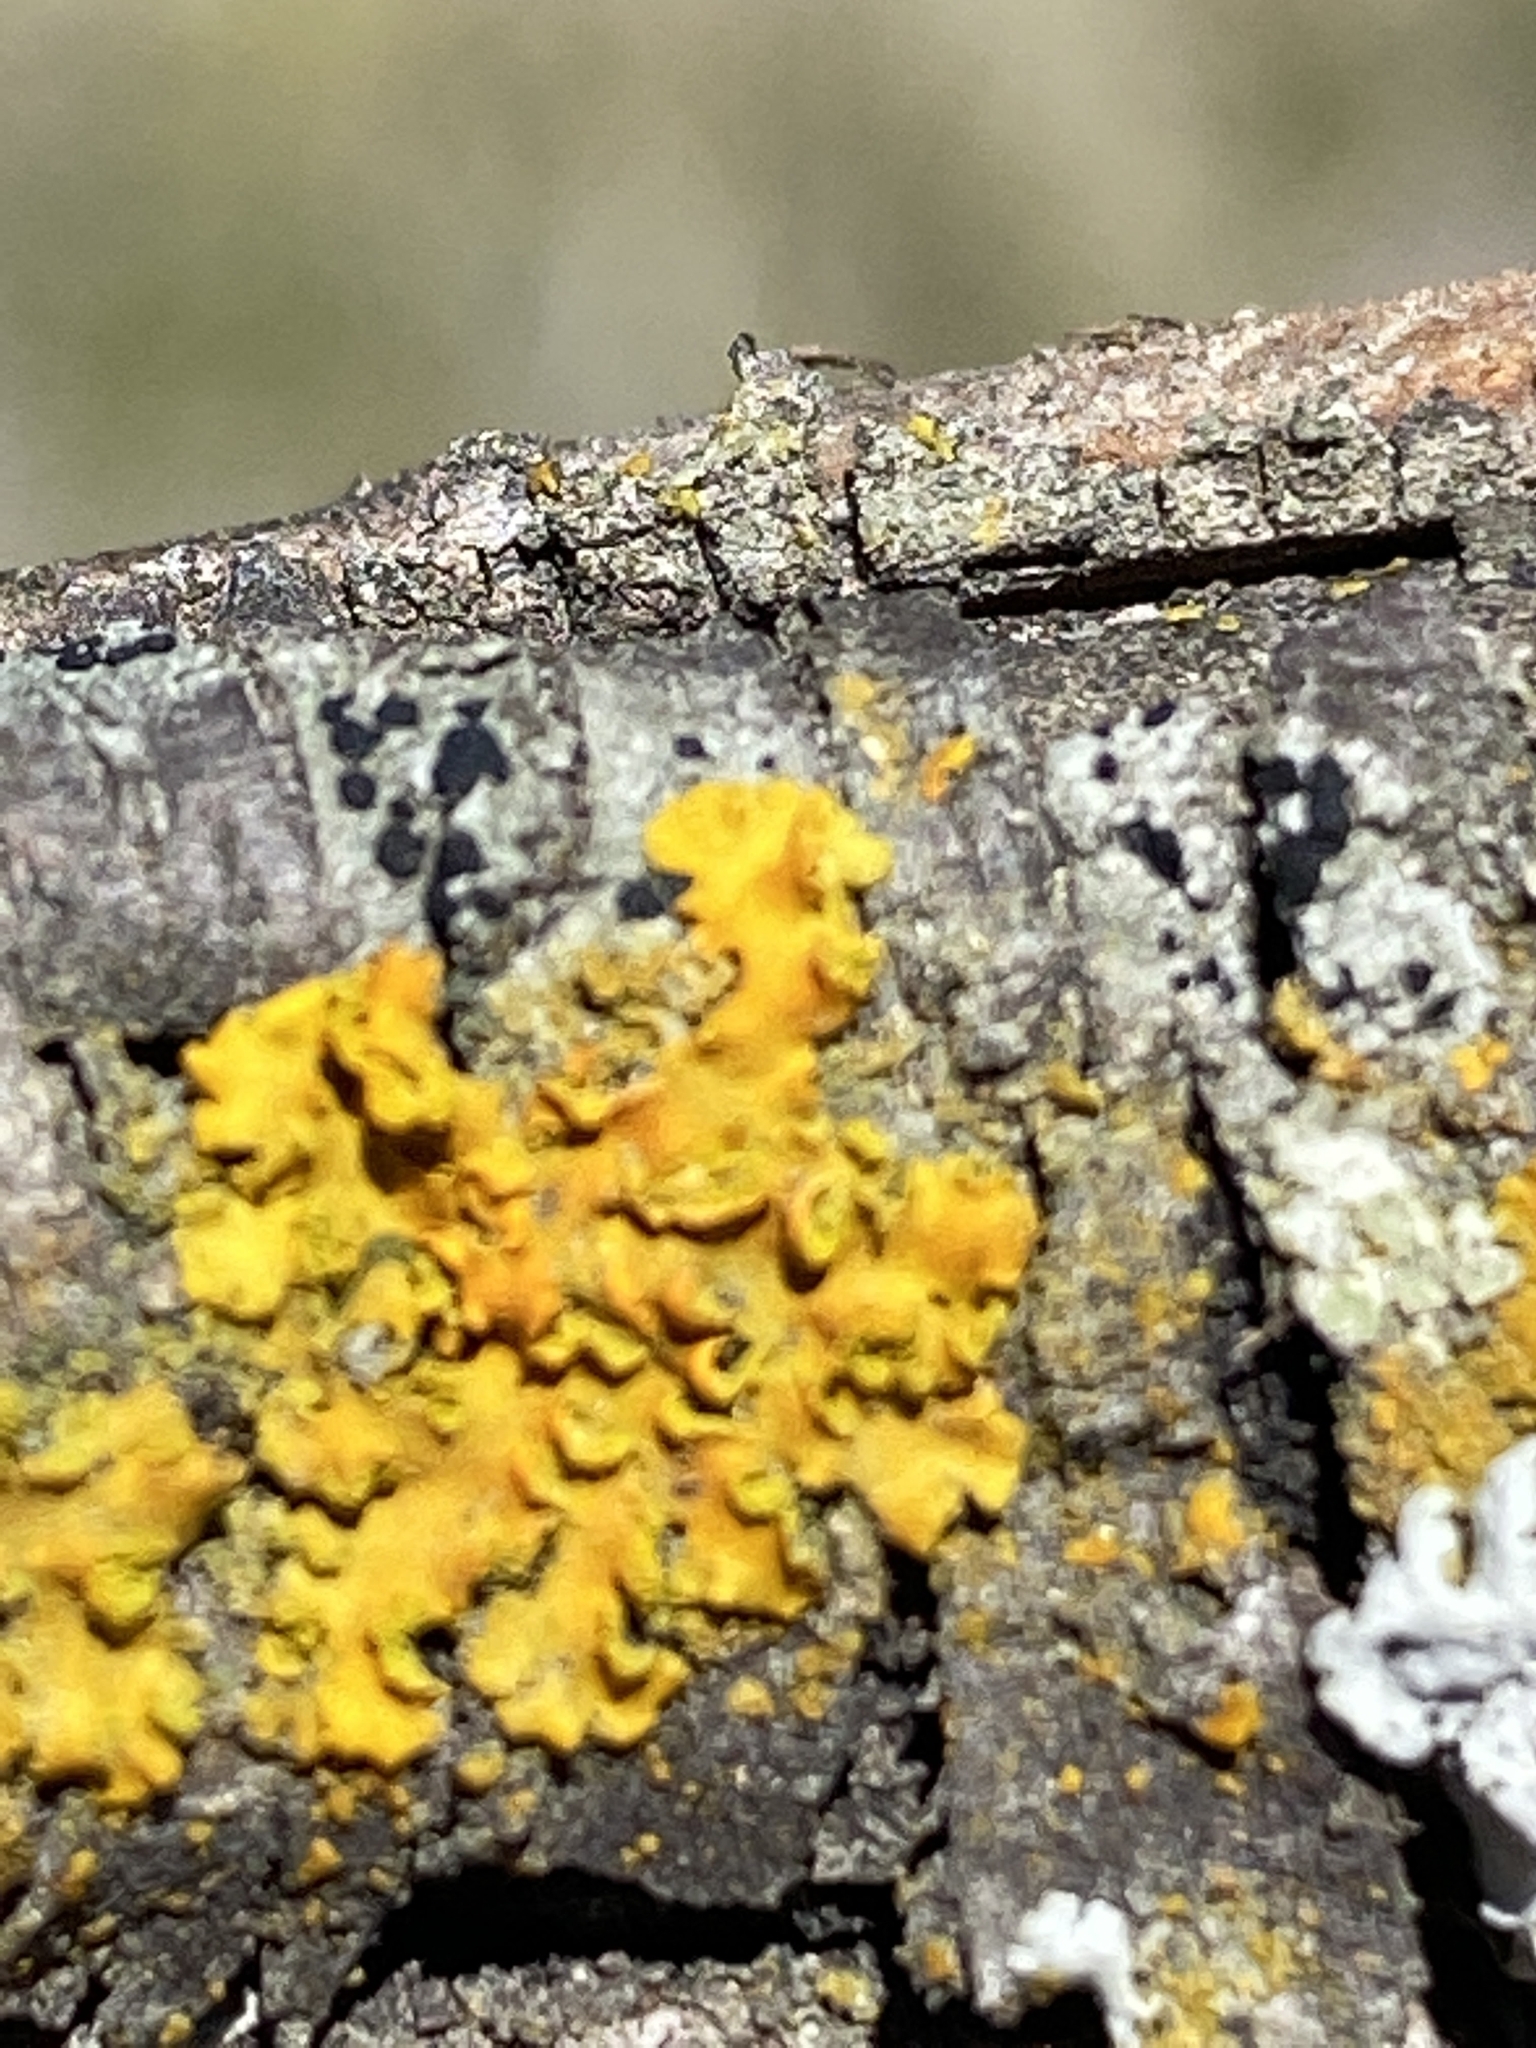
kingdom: Fungi
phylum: Ascomycota
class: Lecanoromycetes
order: Teloschistales
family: Teloschistaceae
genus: Oxneria
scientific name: Oxneria fallax
